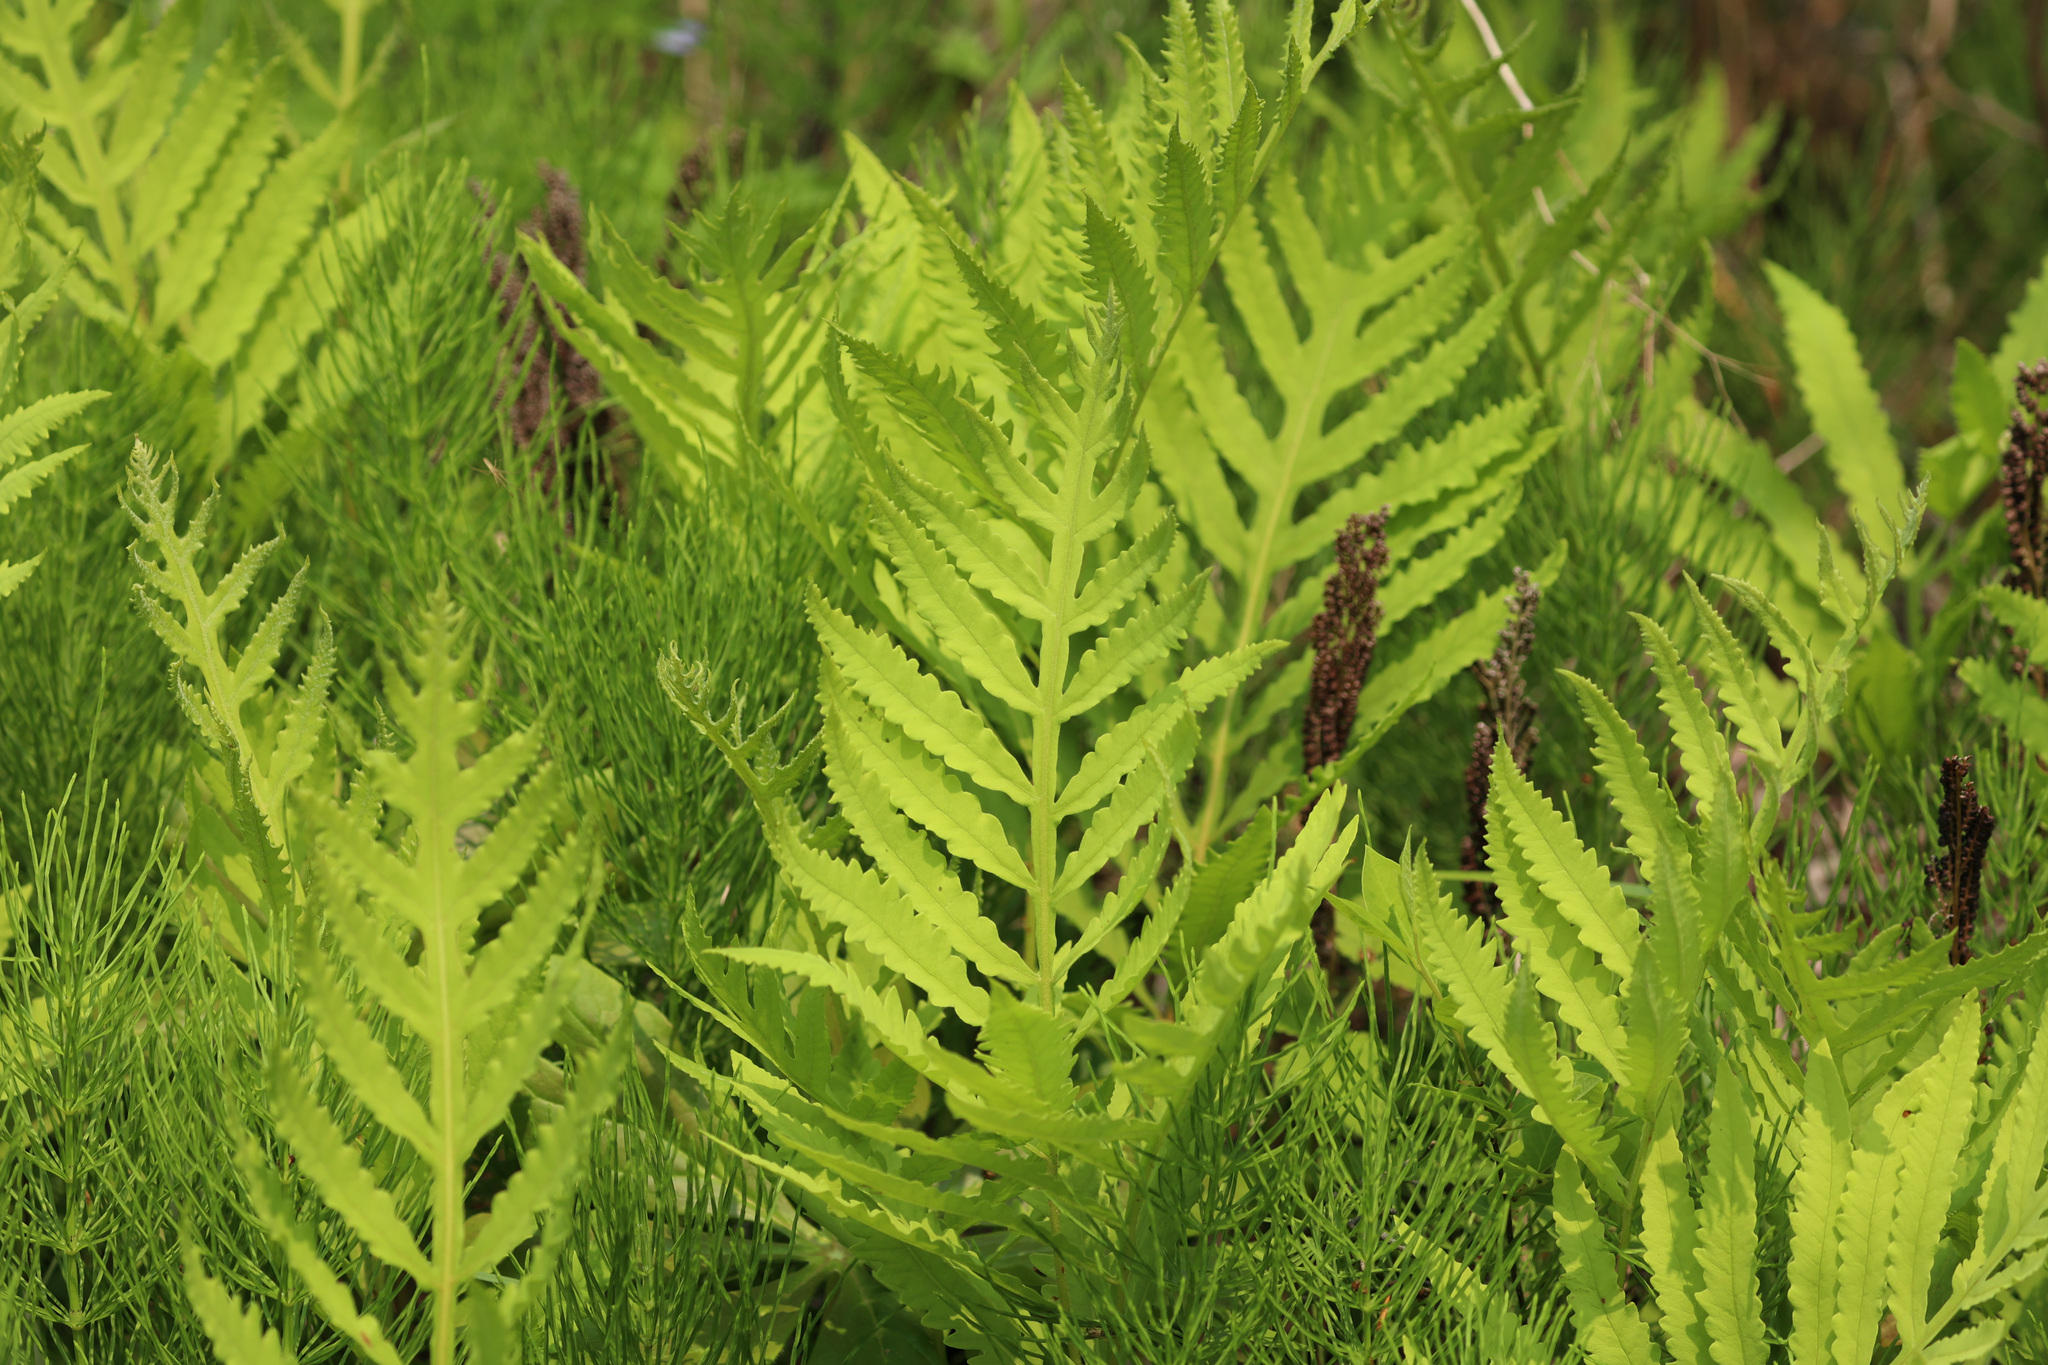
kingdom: Plantae
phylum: Tracheophyta
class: Polypodiopsida
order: Polypodiales
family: Onocleaceae
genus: Onoclea
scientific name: Onoclea sensibilis
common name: Sensitive fern
